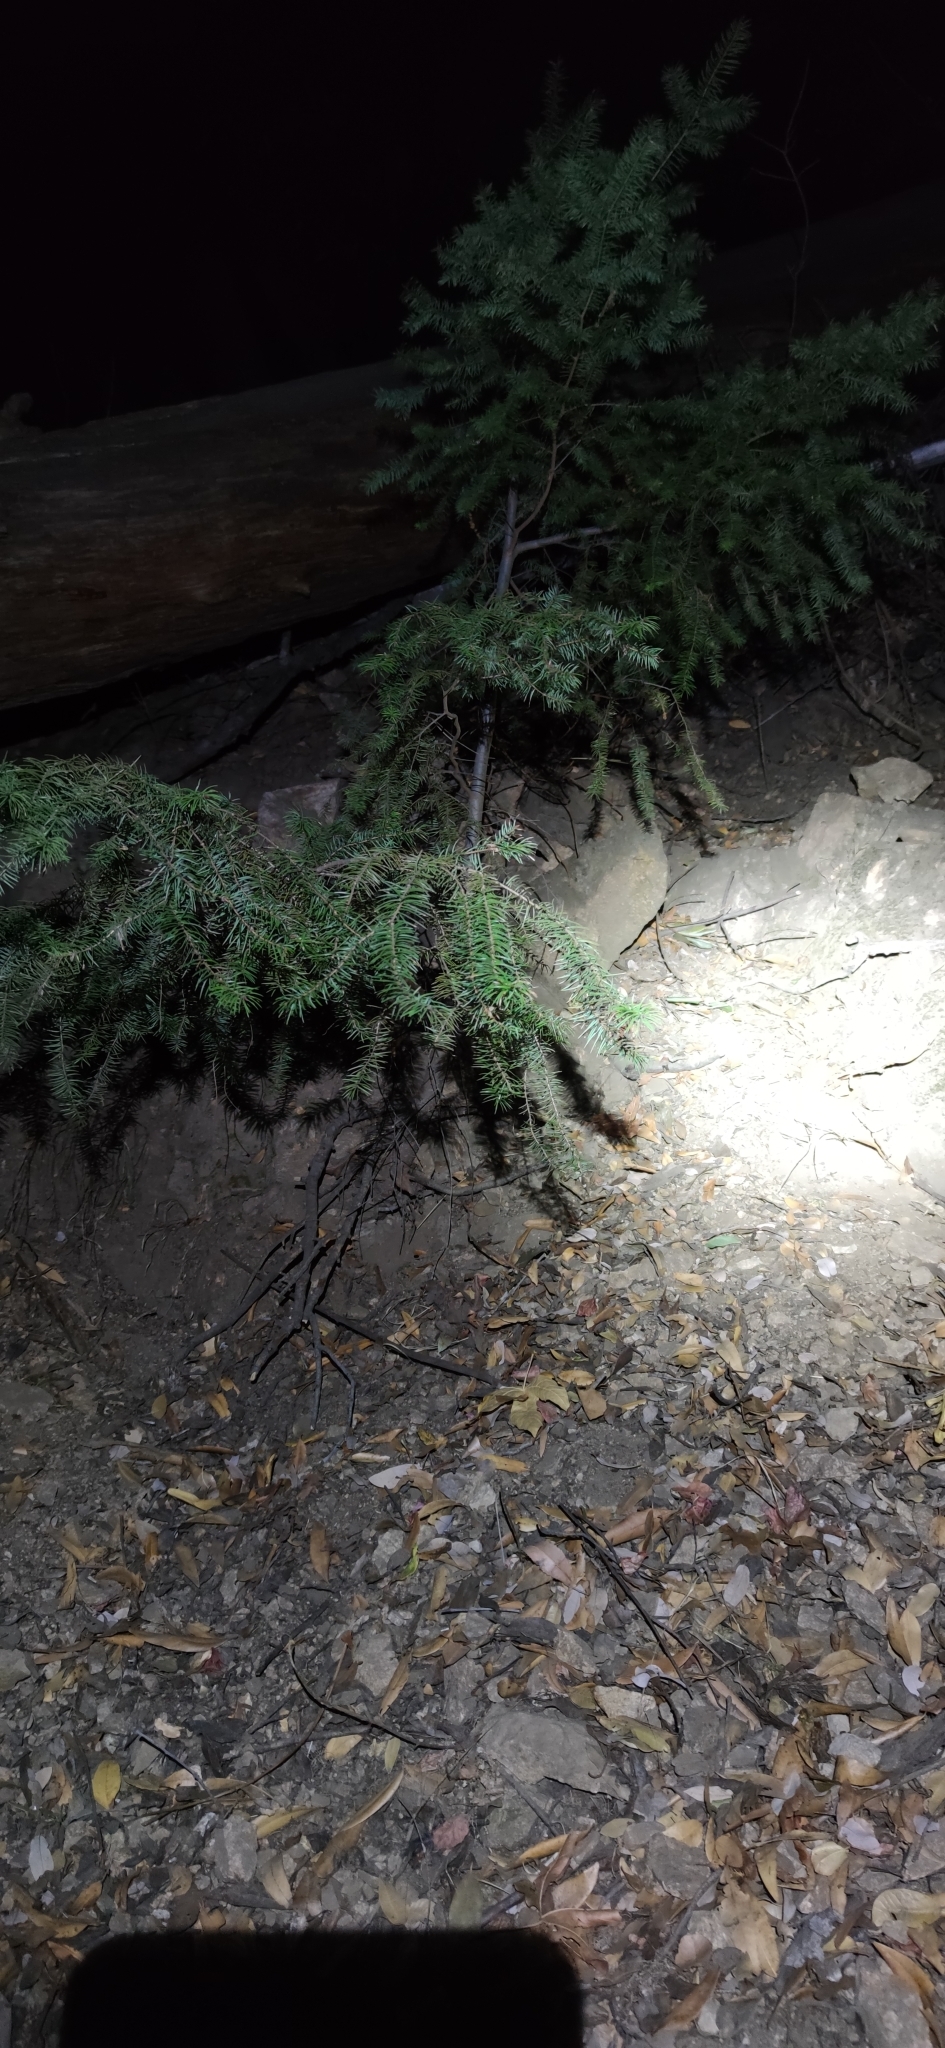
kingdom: Plantae
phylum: Tracheophyta
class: Pinopsida
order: Pinales
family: Pinaceae
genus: Pseudotsuga
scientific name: Pseudotsuga macrocarpa
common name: Big-cone douglas-fir
